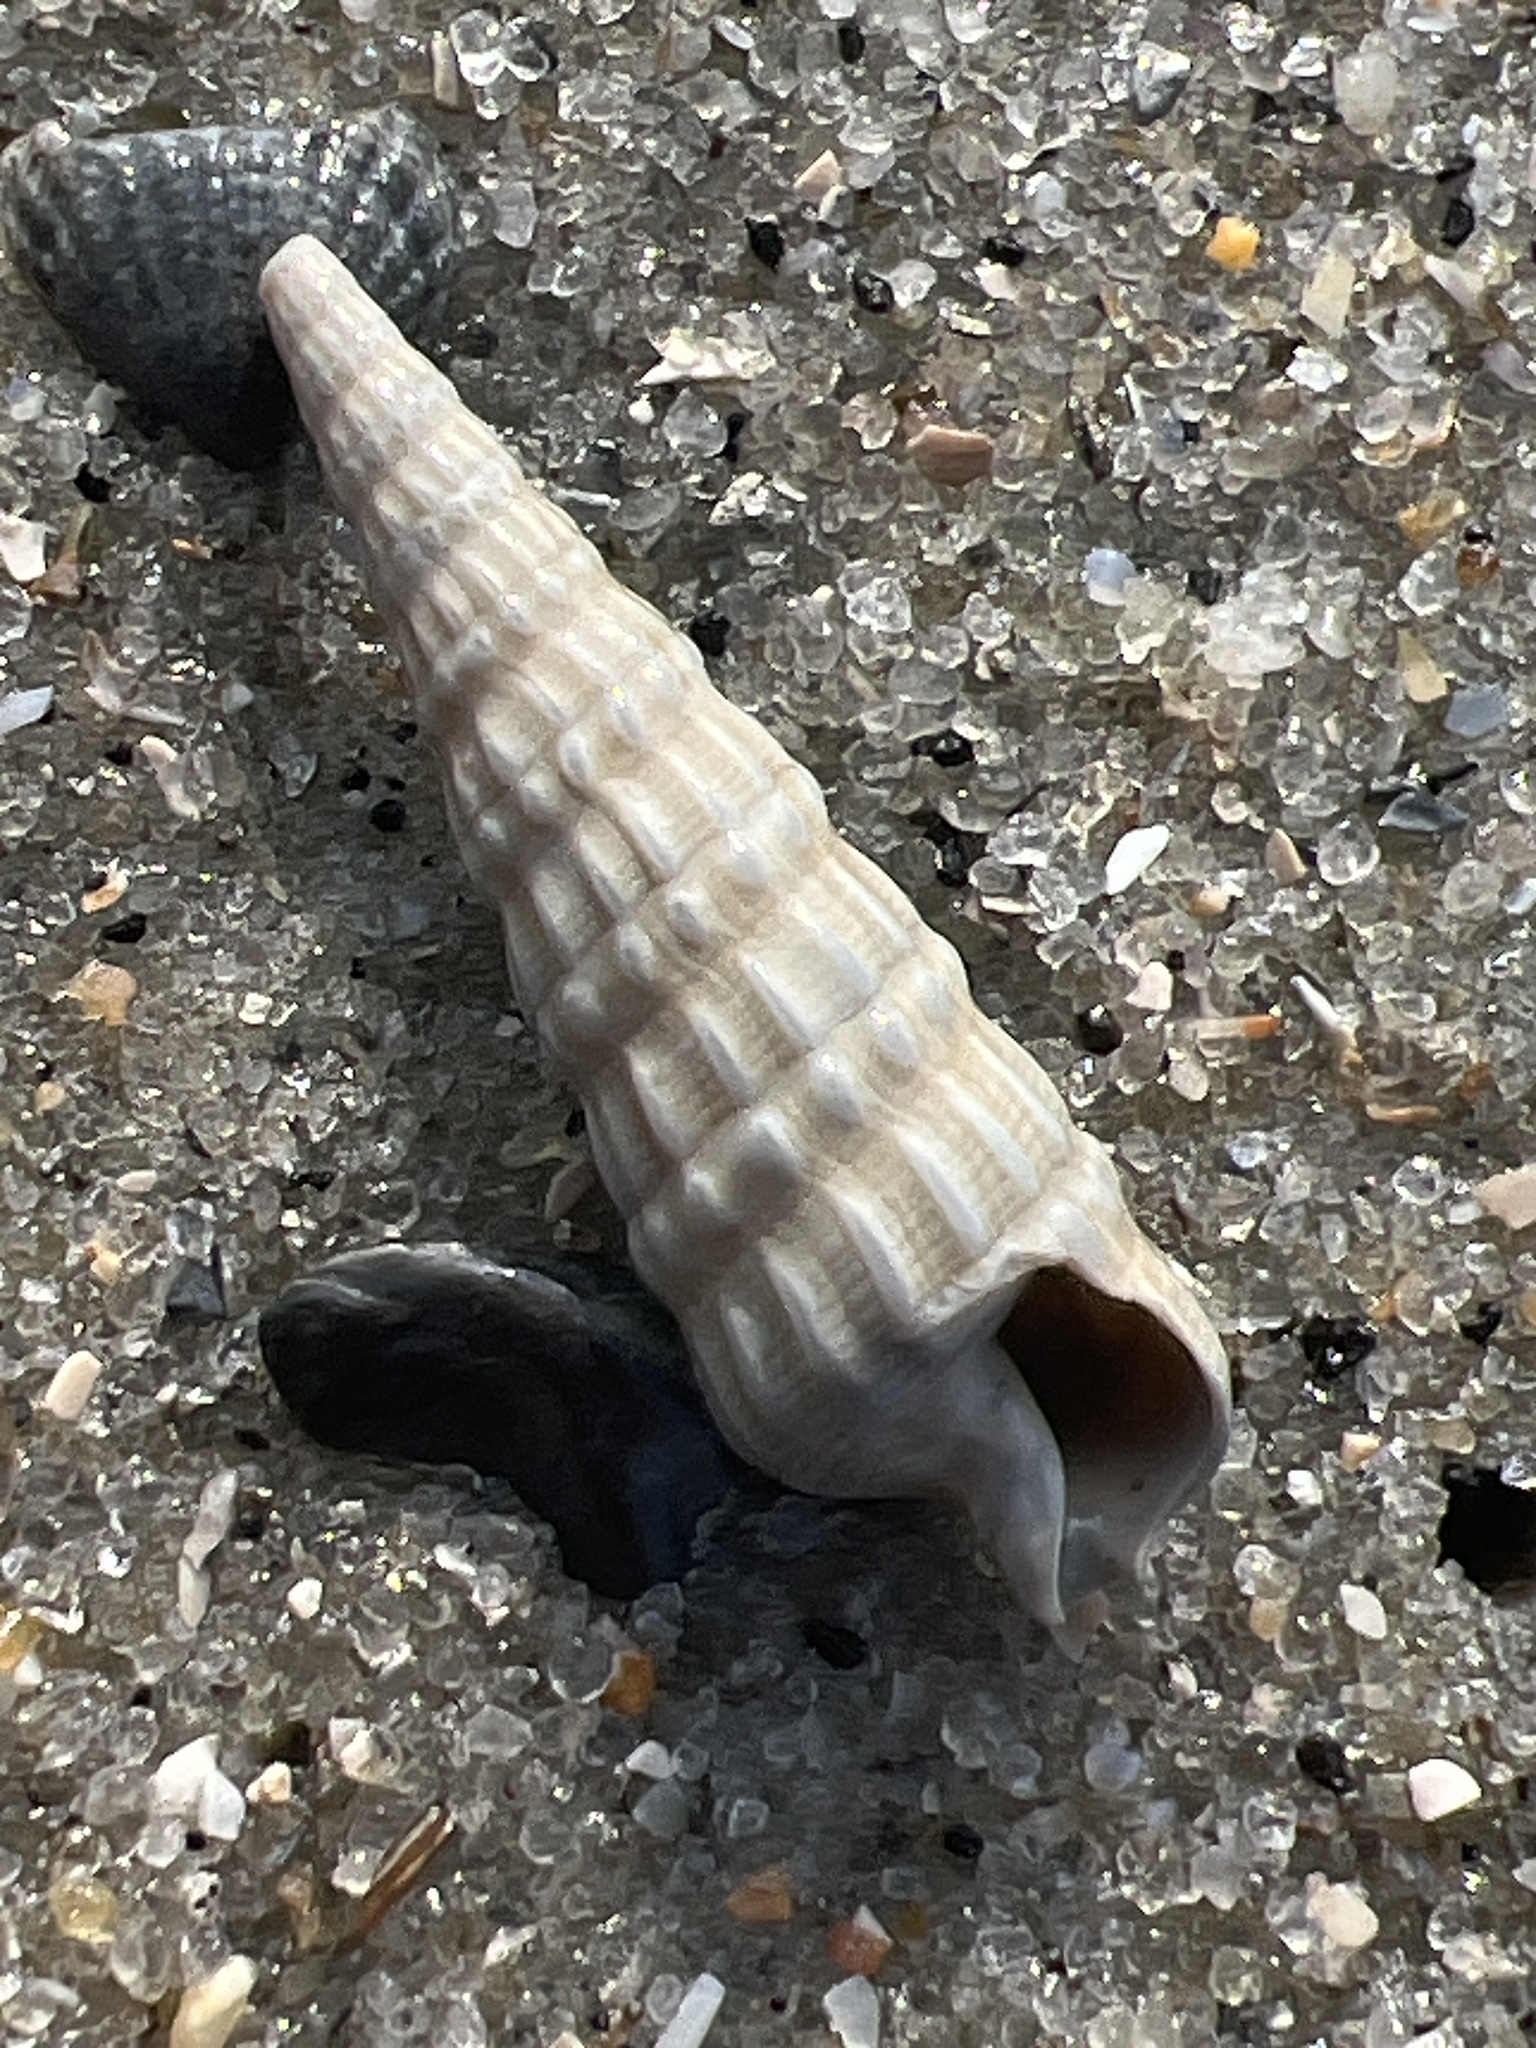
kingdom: Animalia
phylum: Mollusca
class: Gastropoda
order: Neogastropoda
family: Terebridae
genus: Neoterebra
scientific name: Neoterebra dislocata
